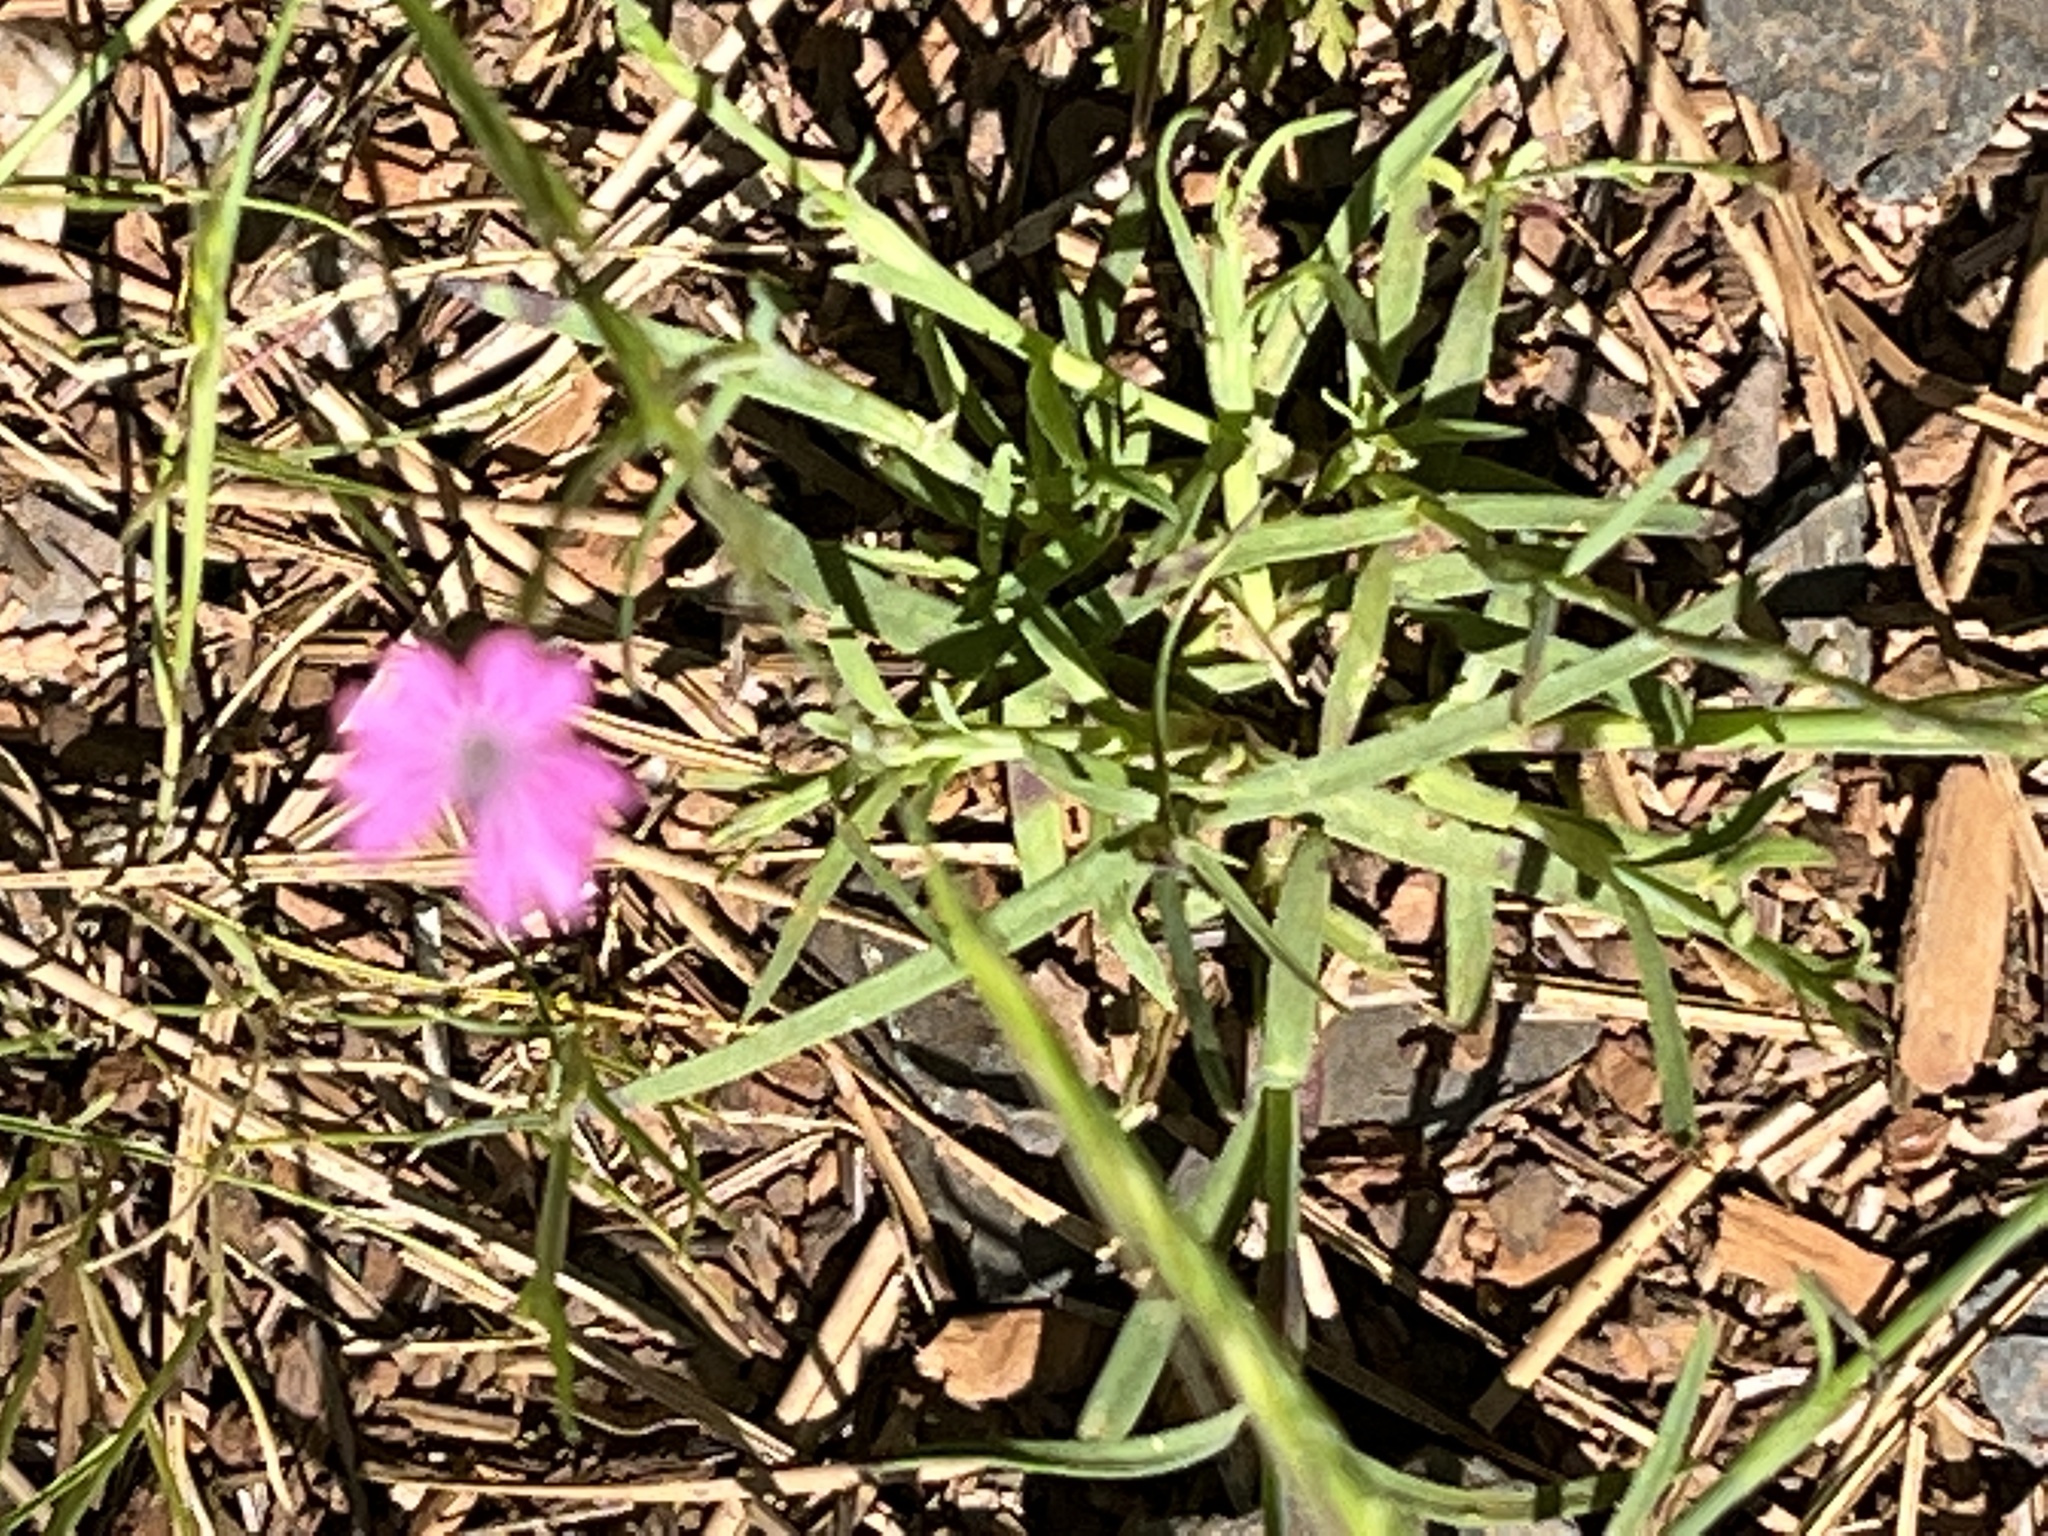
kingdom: Plantae
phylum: Tracheophyta
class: Magnoliopsida
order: Caryophyllales
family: Caryophyllaceae
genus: Petrorhagia
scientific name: Petrorhagia dubia
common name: Hairypink
